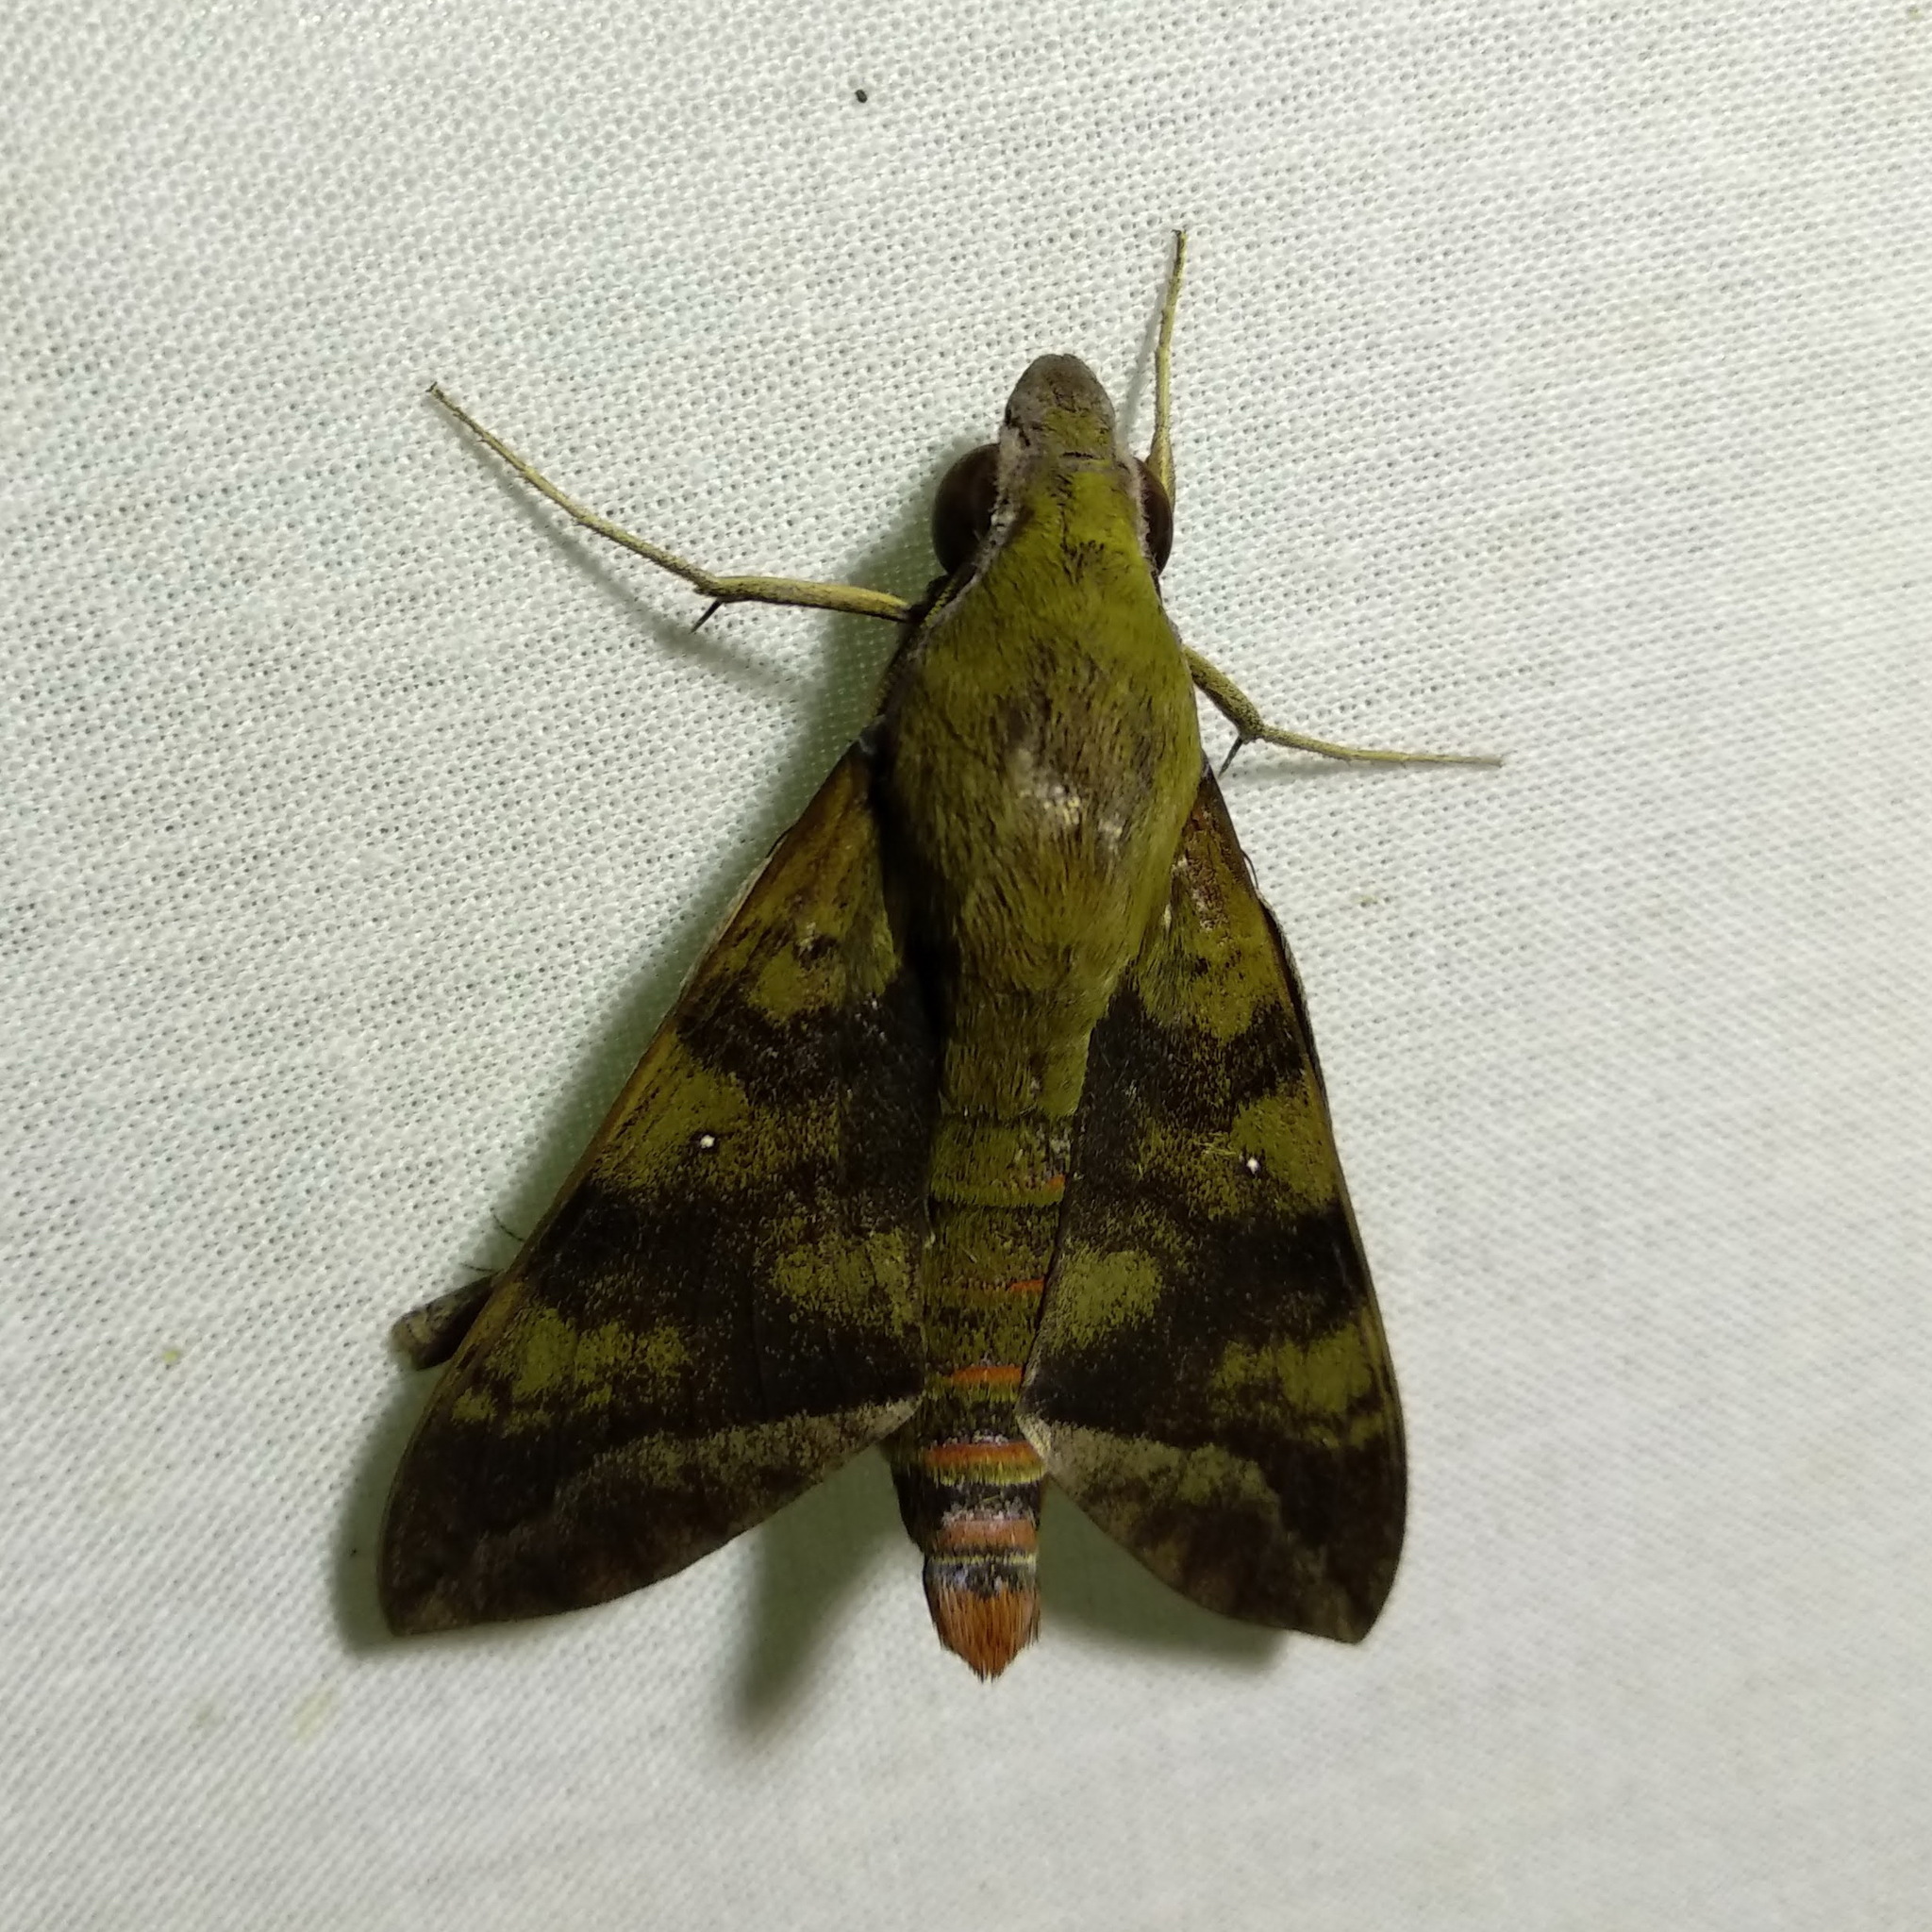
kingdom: Animalia
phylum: Arthropoda
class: Insecta
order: Lepidoptera
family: Sphingidae
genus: Nephele
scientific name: Nephele comma
